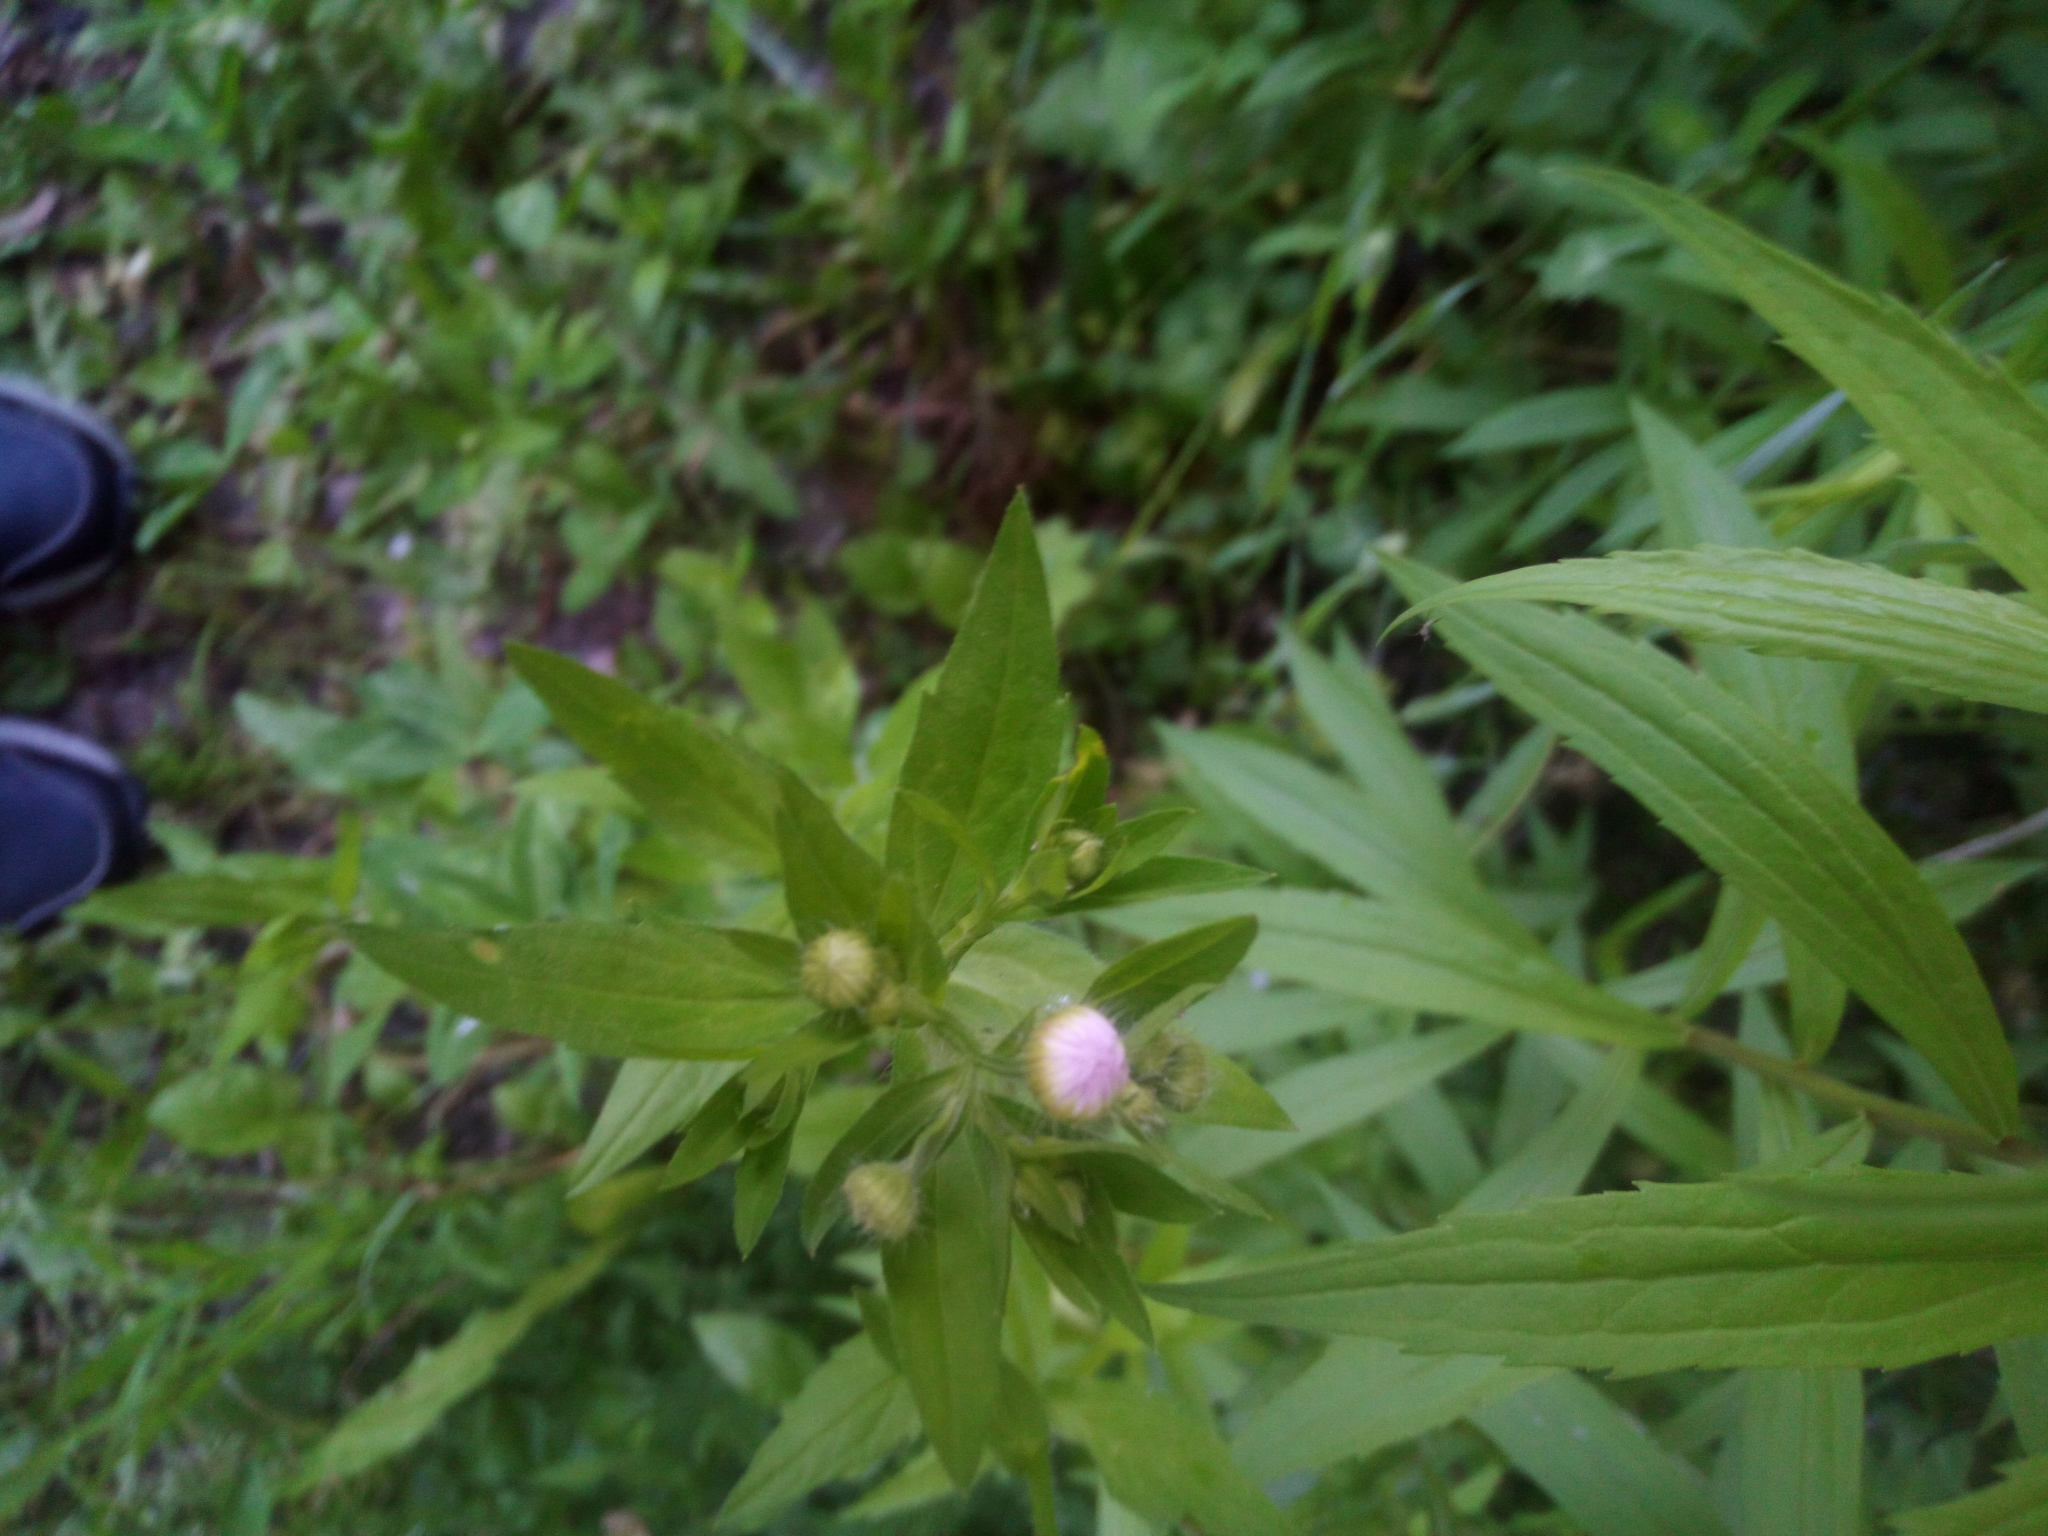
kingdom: Plantae
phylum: Tracheophyta
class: Magnoliopsida
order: Asterales
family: Asteraceae
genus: Erigeron
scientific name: Erigeron annuus
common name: Tall fleabane
